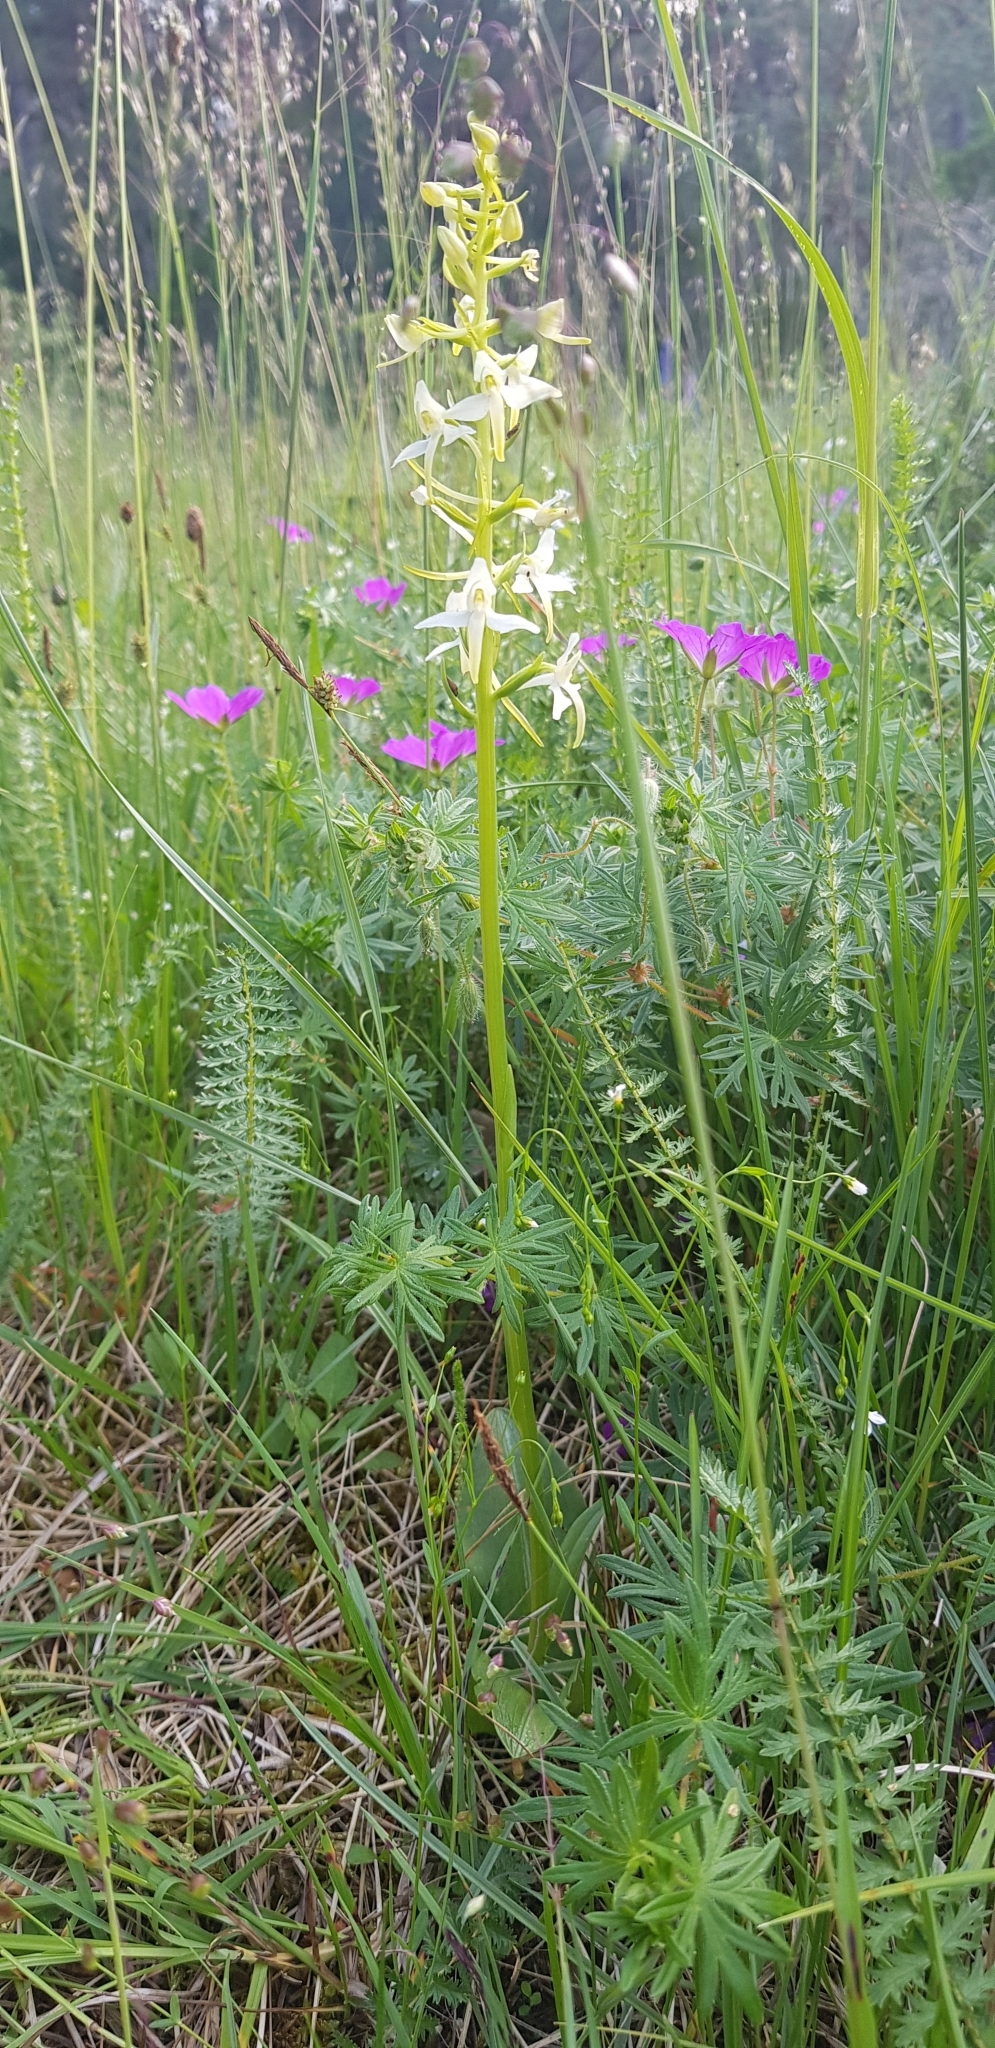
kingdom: Plantae
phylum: Tracheophyta
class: Liliopsida
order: Asparagales
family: Orchidaceae
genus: Platanthera
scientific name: Platanthera bifolia
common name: Lesser butterfly-orchid
